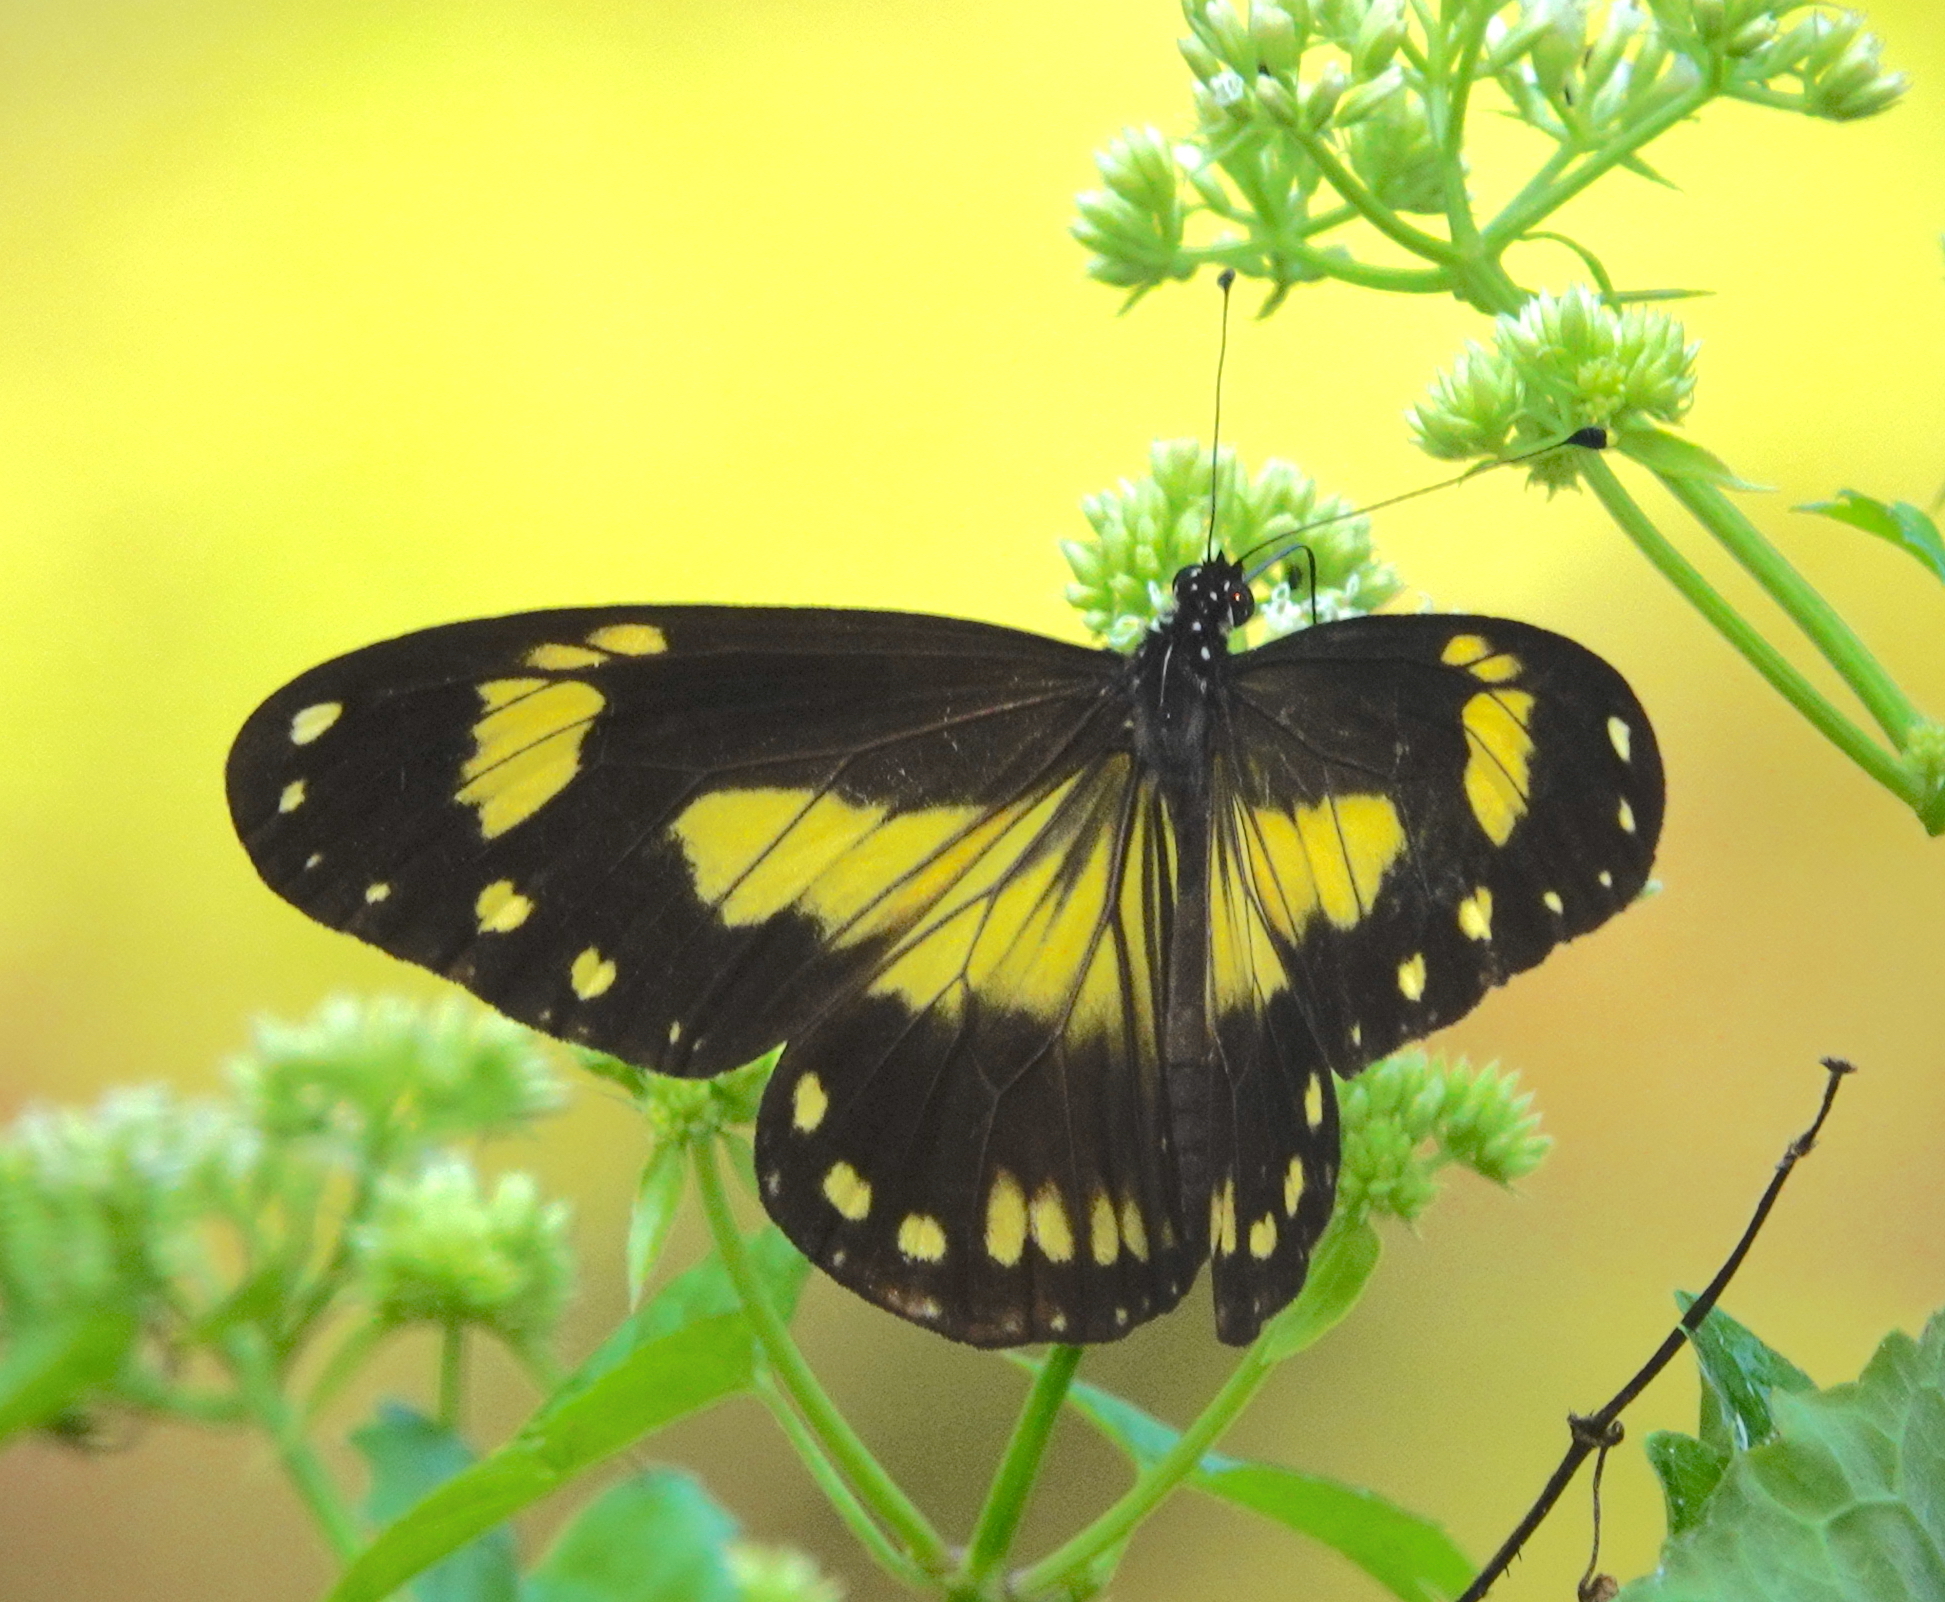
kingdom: Animalia
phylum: Arthropoda
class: Insecta
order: Lepidoptera
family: Nymphalidae
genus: Ideopsis
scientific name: Ideopsis klassika
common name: Seram small tree-nymph
